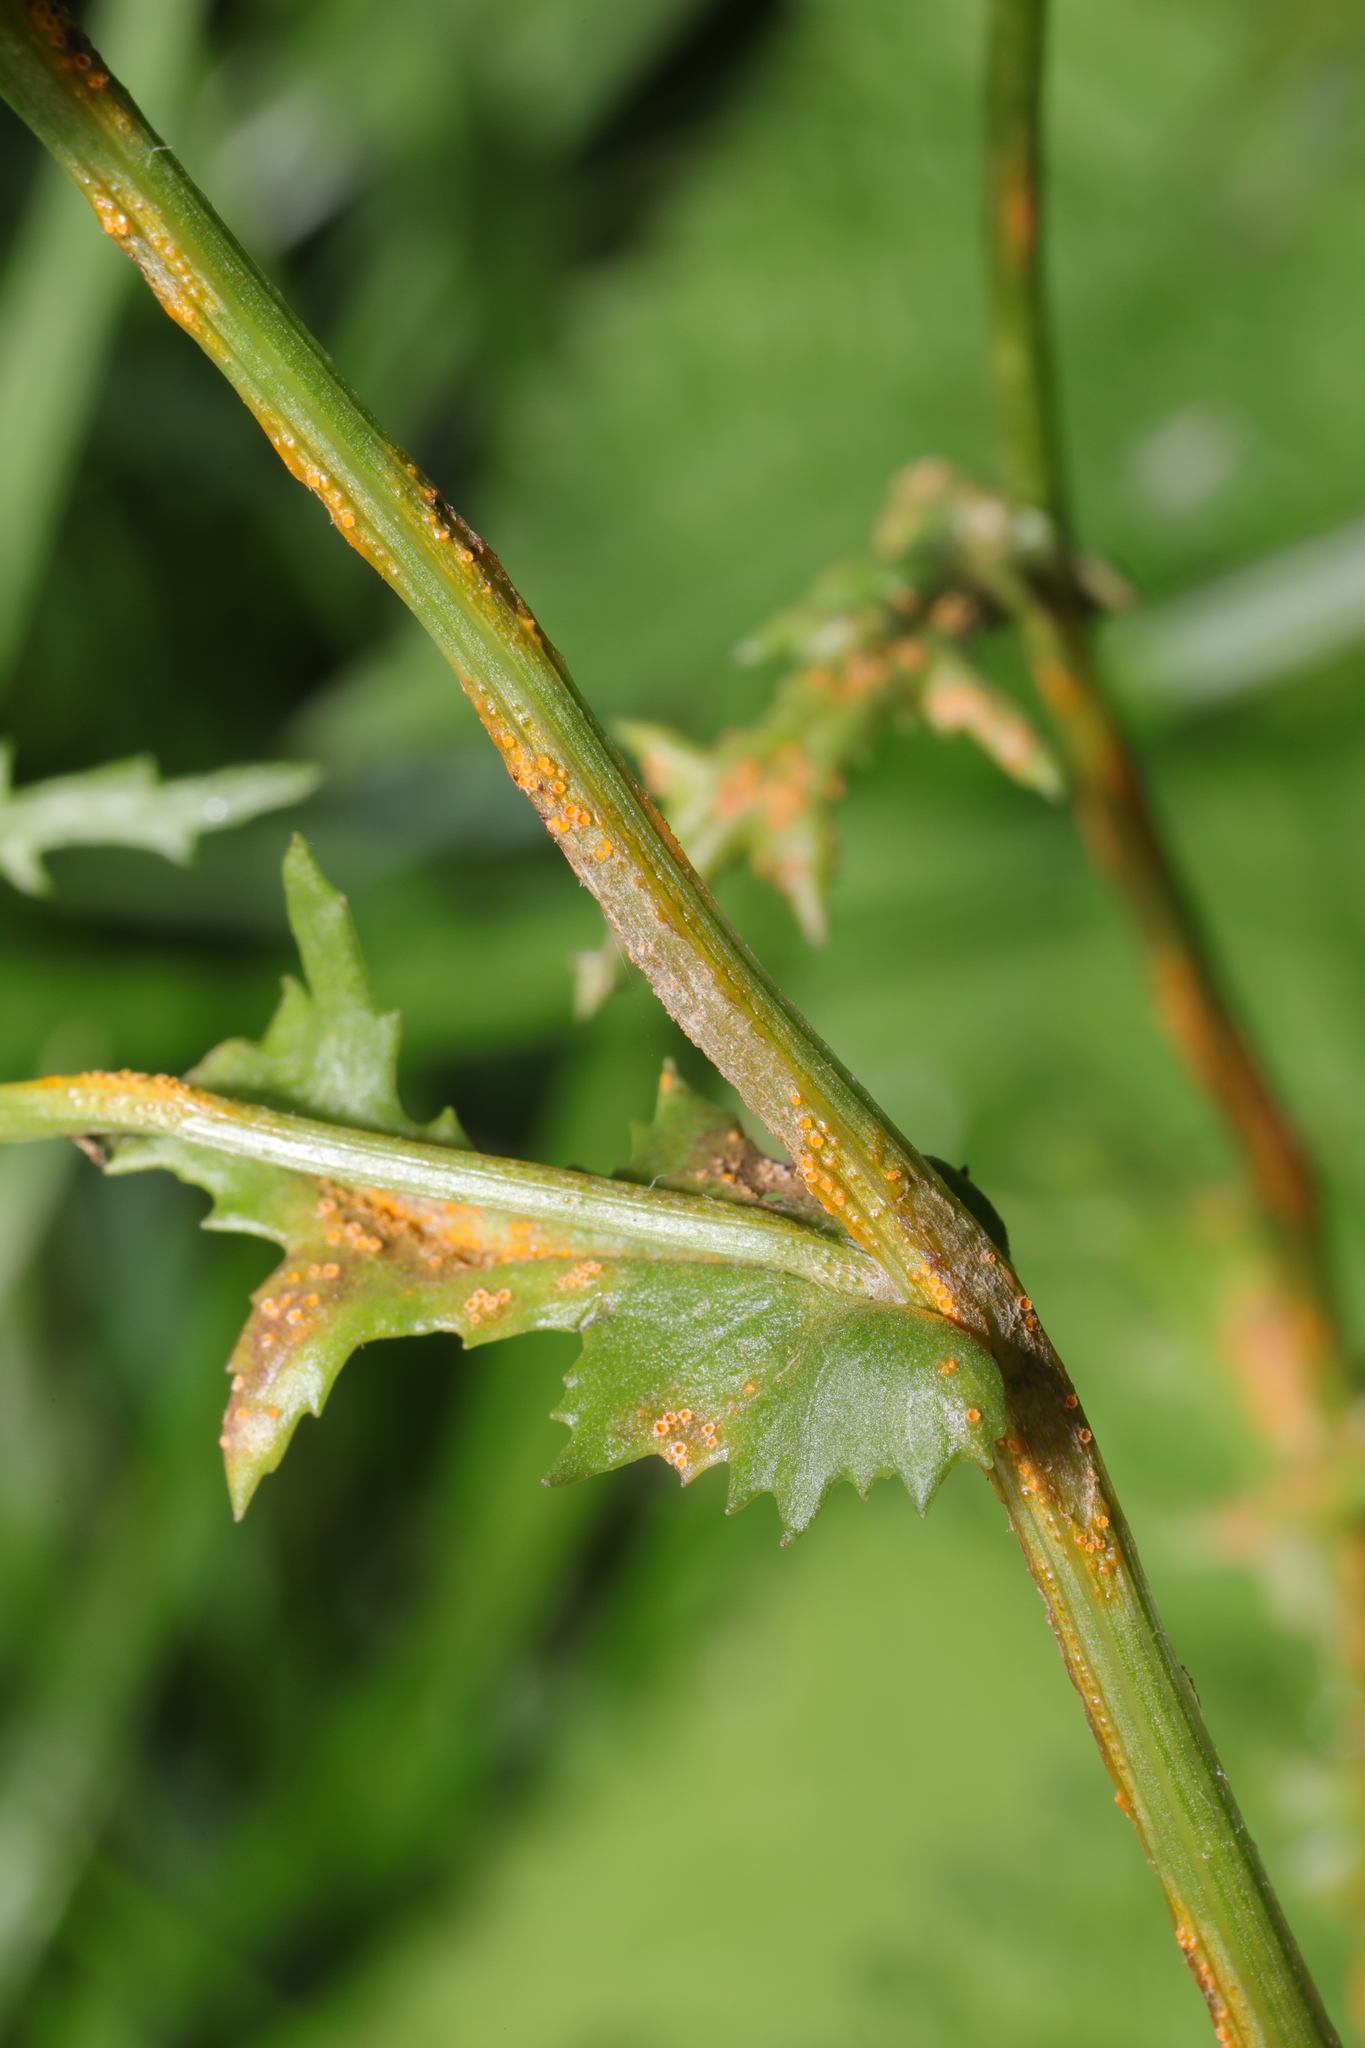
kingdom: Fungi
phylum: Basidiomycota
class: Pucciniomycetes
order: Pucciniales
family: Pucciniaceae
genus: Puccinia
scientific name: Puccinia lagenophorae
